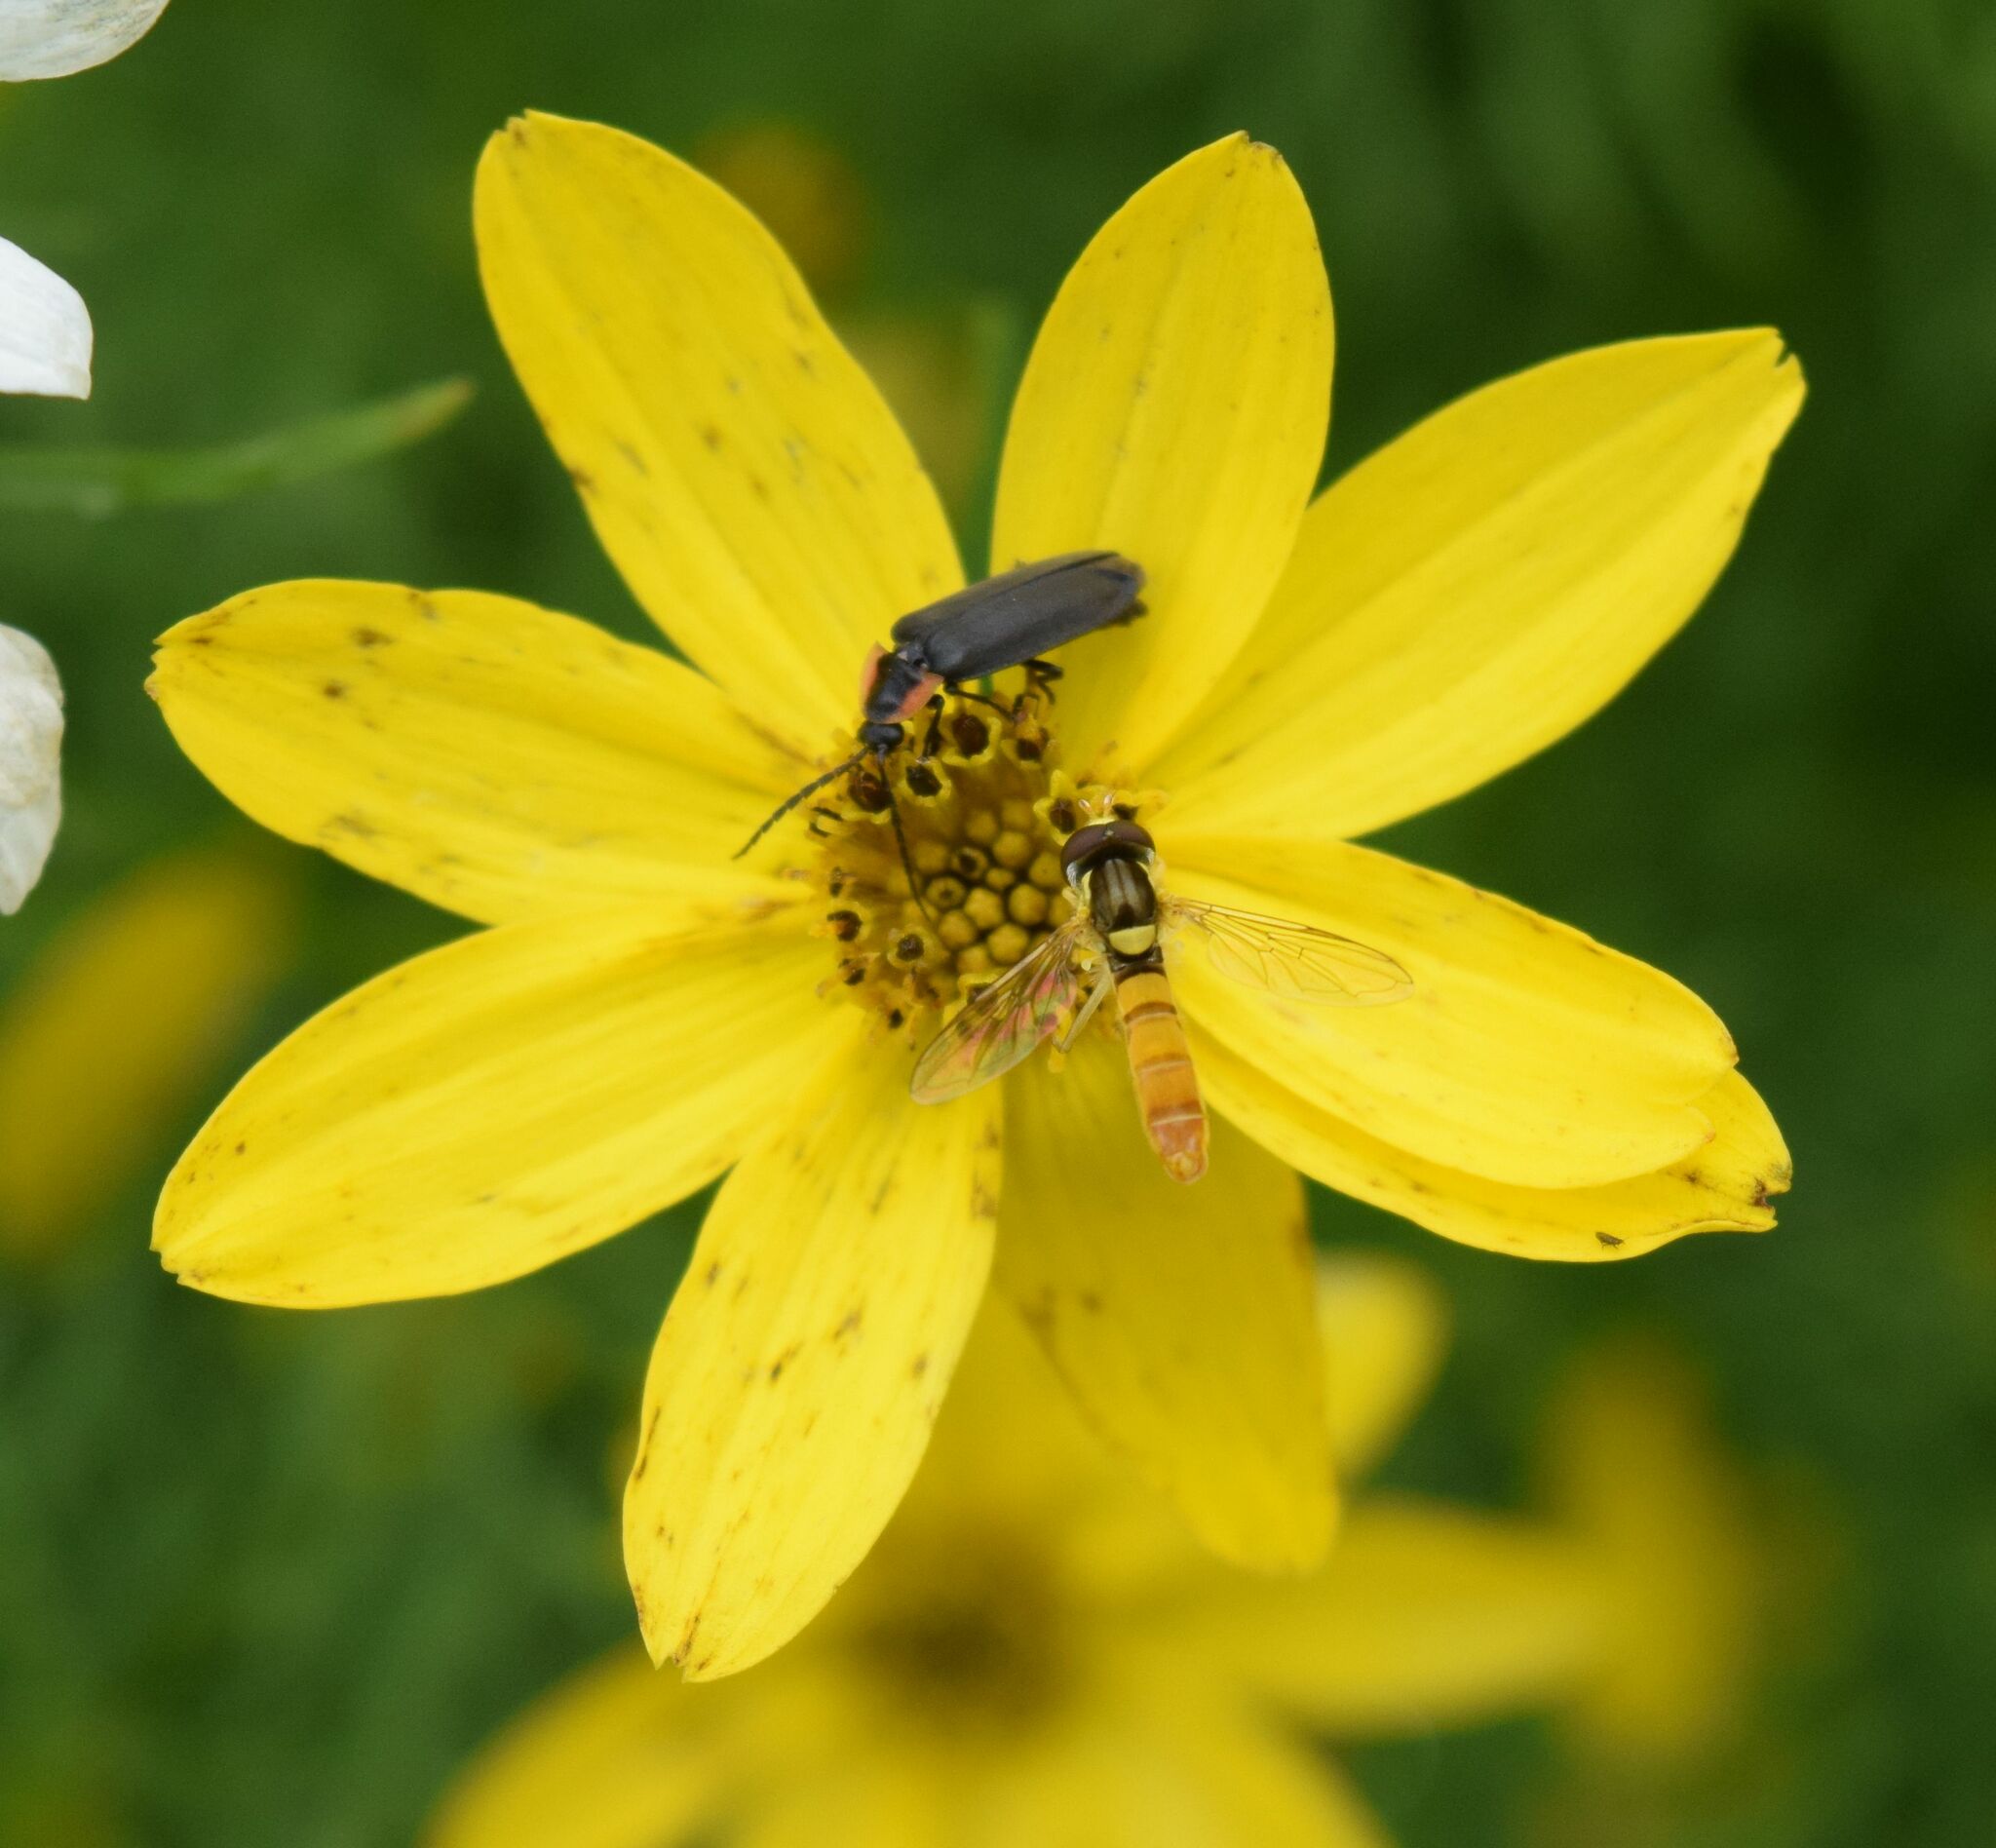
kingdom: Animalia
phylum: Arthropoda
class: Insecta
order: Diptera
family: Syrphidae
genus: Sphaerophoria
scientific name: Sphaerophoria contigua
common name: Tufted globetail
